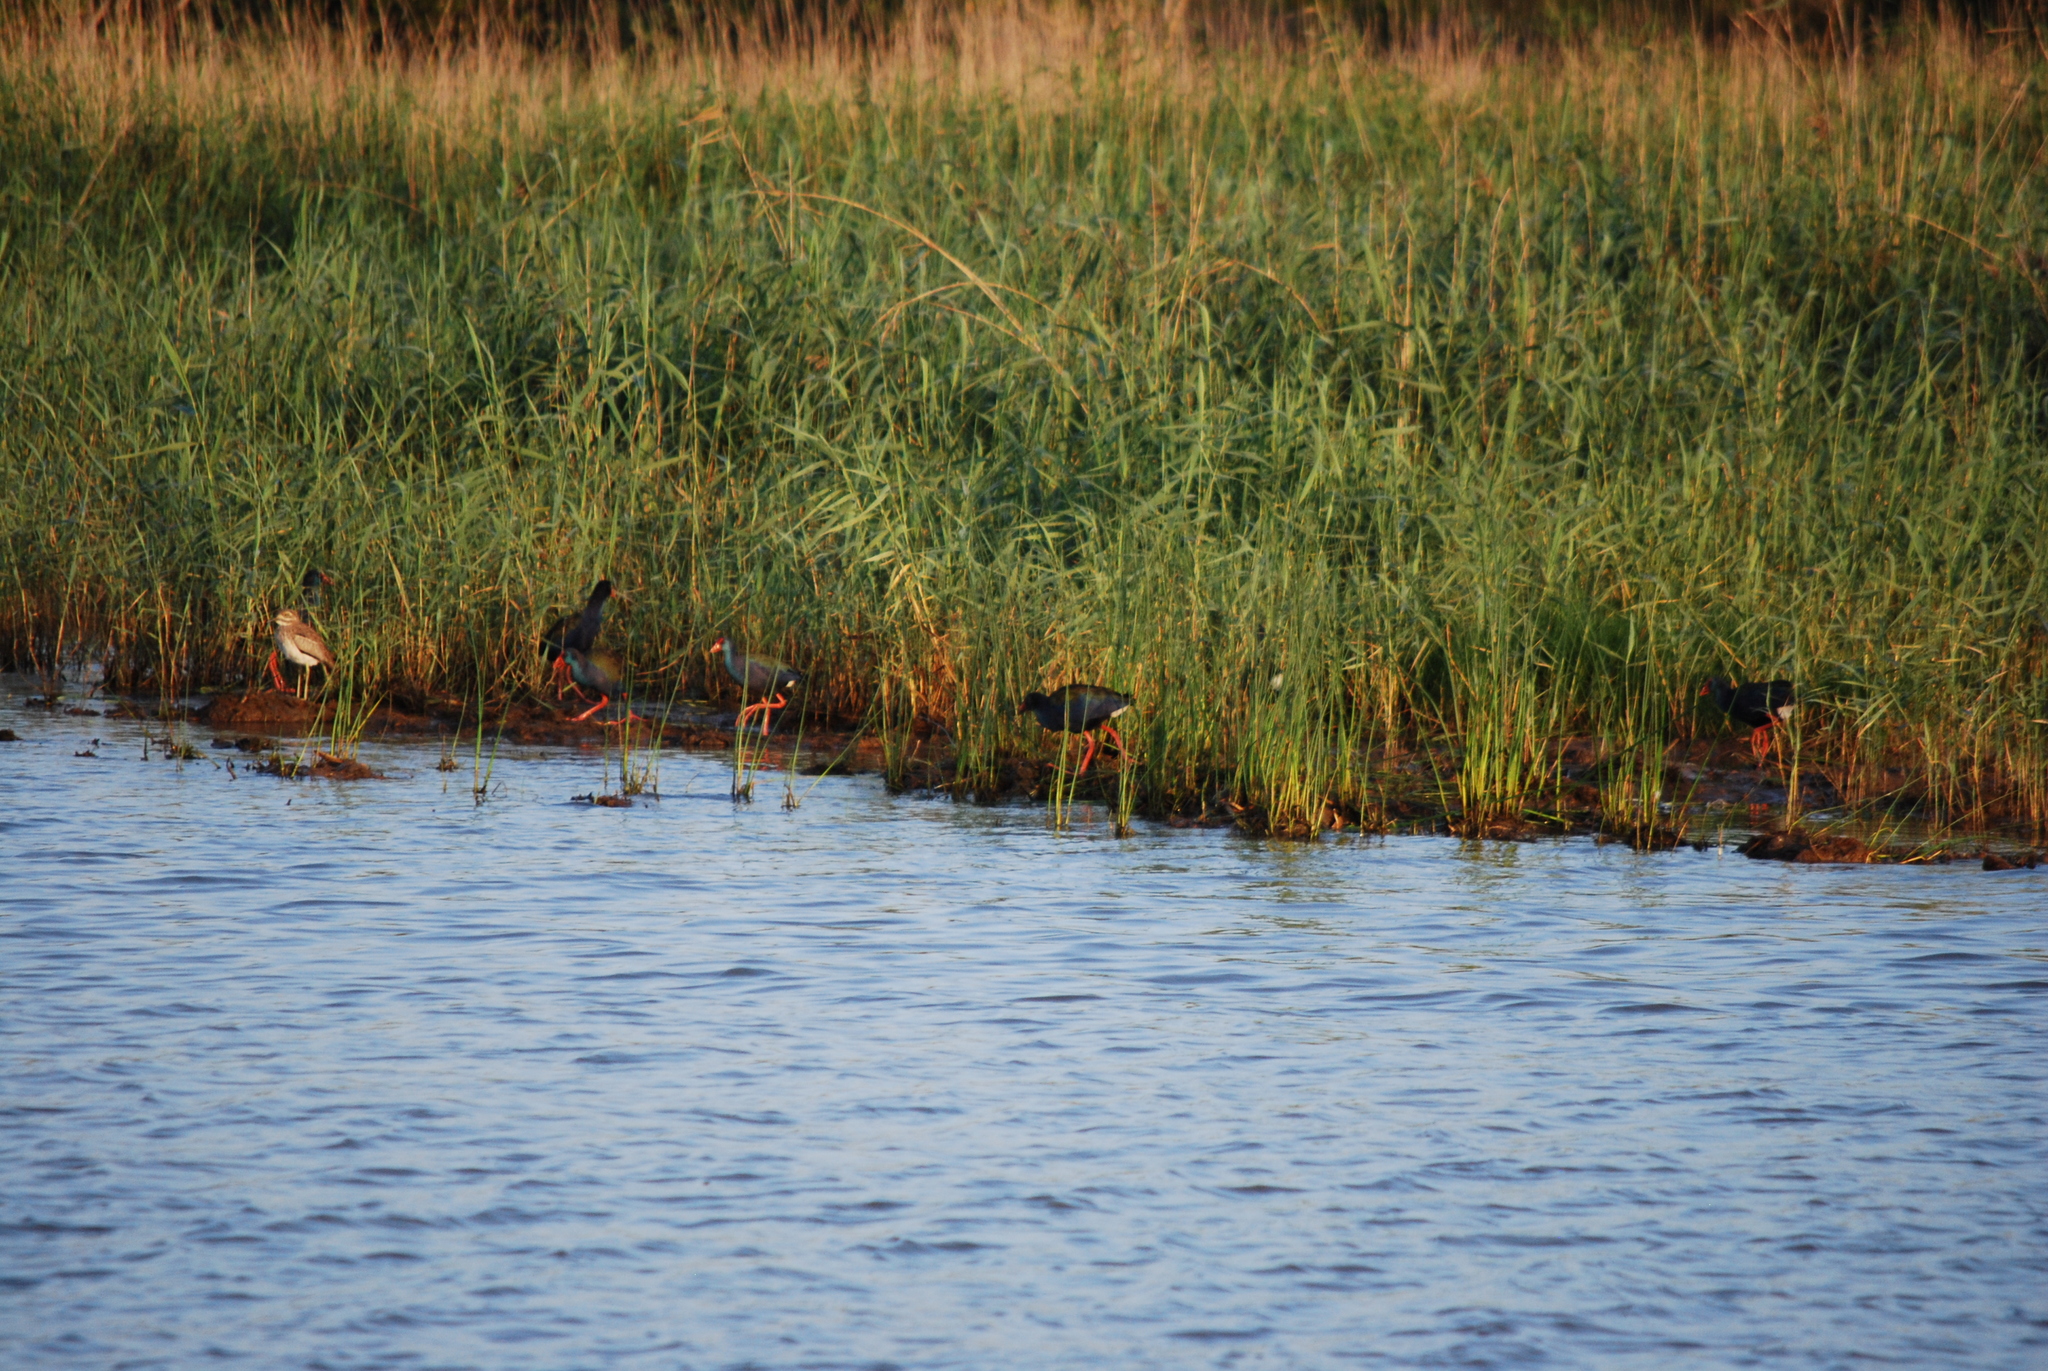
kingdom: Animalia
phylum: Chordata
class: Aves
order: Charadriiformes
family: Burhinidae
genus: Burhinus
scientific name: Burhinus vermiculatus
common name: Water thick-knee
